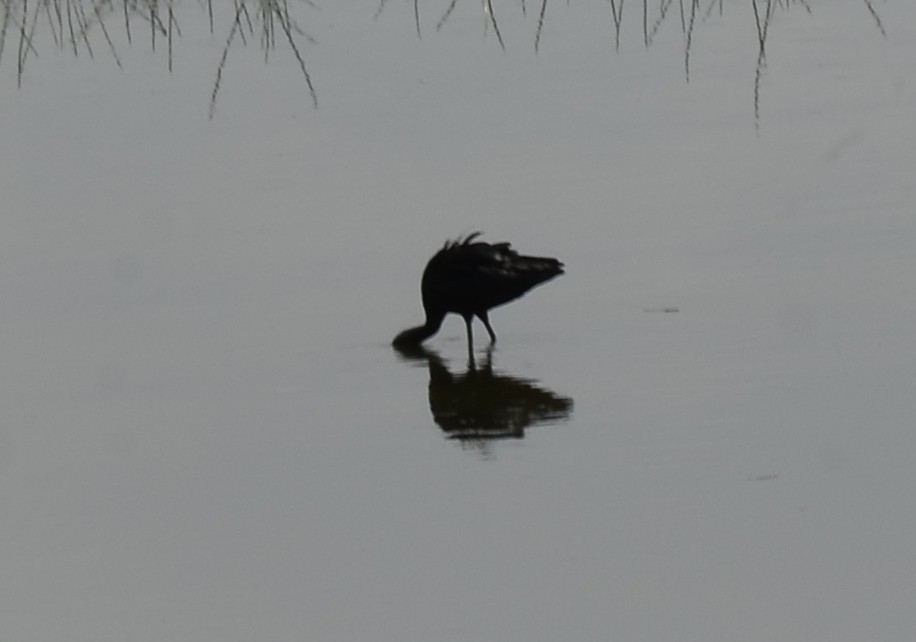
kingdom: Animalia
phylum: Chordata
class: Aves
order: Pelecaniformes
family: Threskiornithidae
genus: Plegadis
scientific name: Plegadis falcinellus
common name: Glossy ibis
